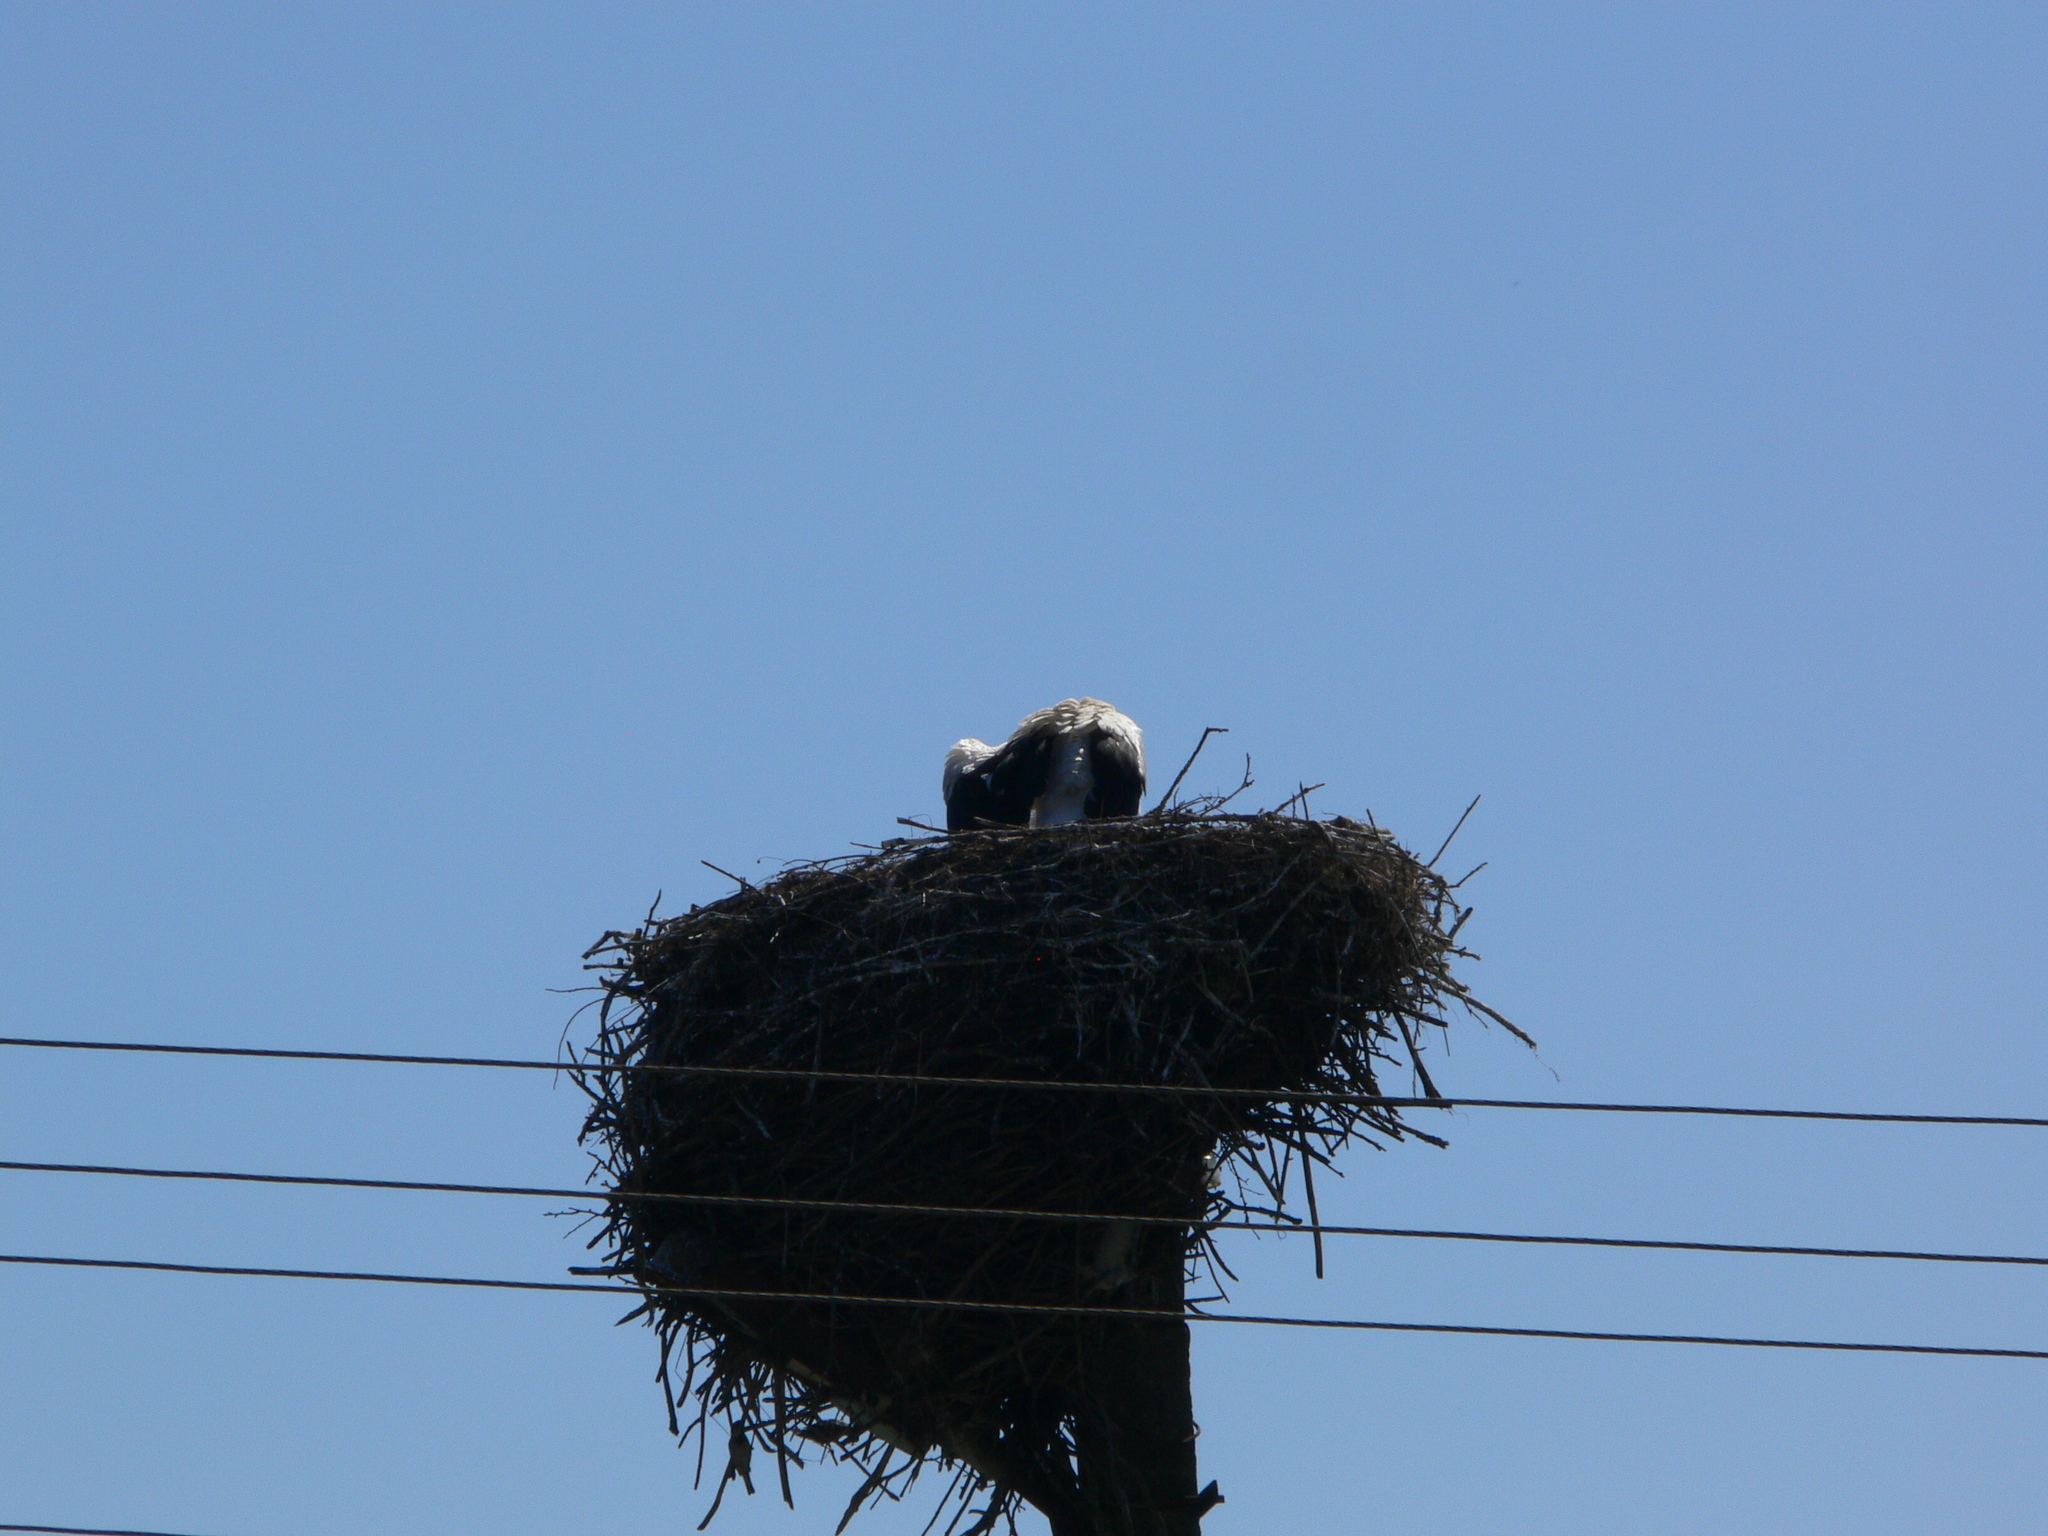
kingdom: Animalia
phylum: Chordata
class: Aves
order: Ciconiiformes
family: Ciconiidae
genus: Ciconia
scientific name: Ciconia ciconia
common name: White stork
